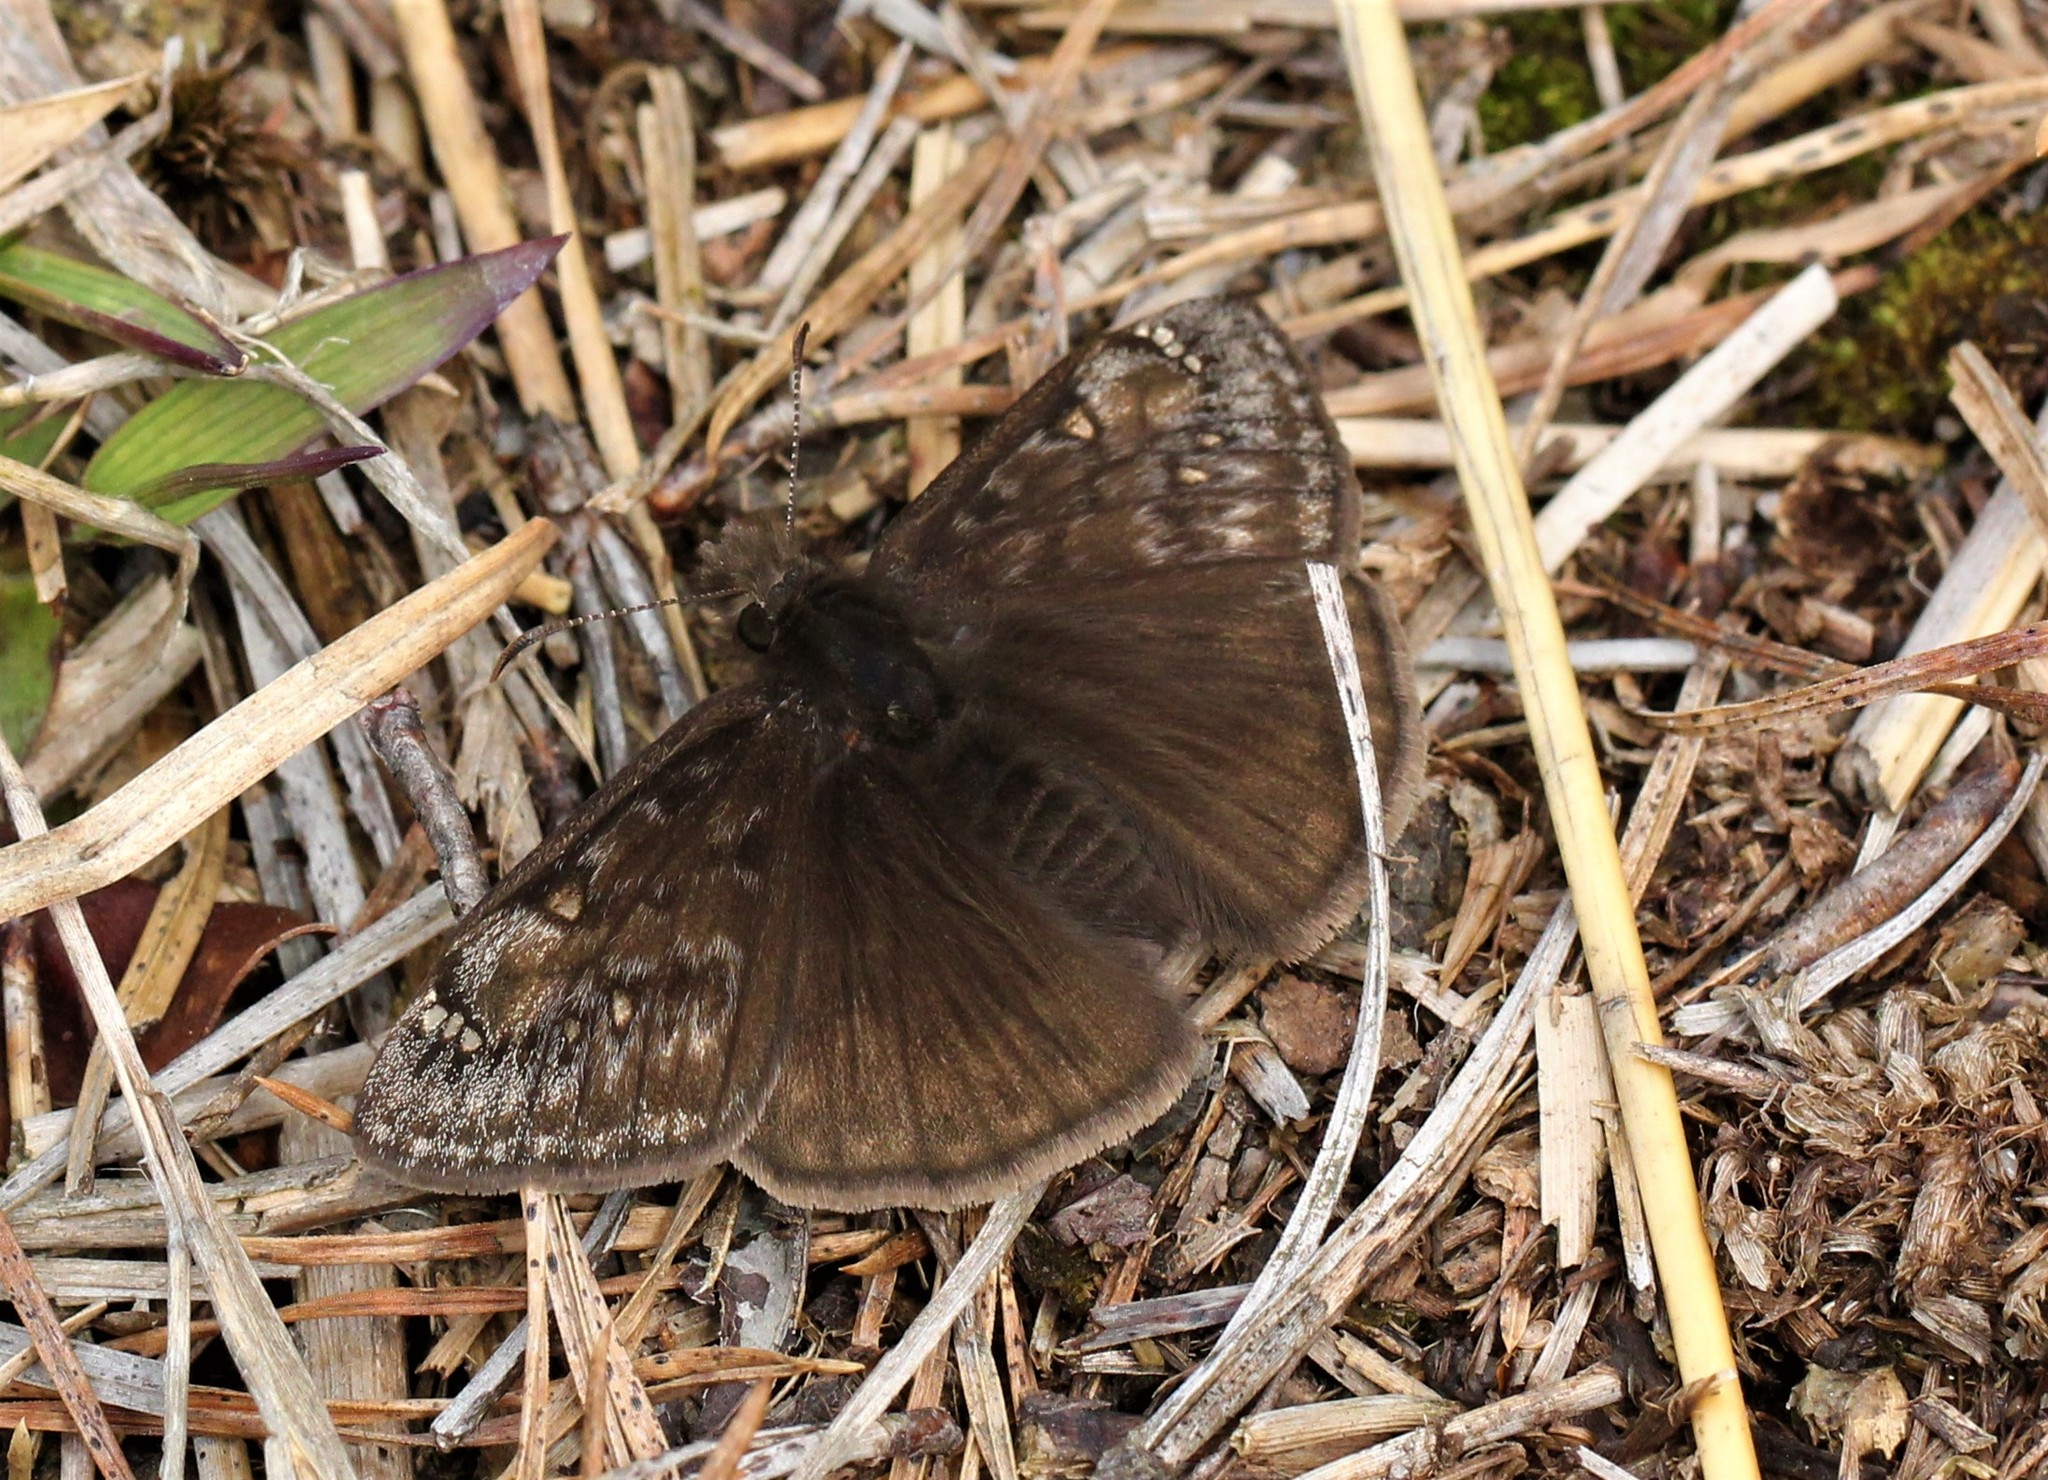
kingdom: Animalia
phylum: Arthropoda
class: Insecta
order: Lepidoptera
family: Hesperiidae
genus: Erynnis
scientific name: Erynnis juvenalis
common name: Juvenal's duskywing
